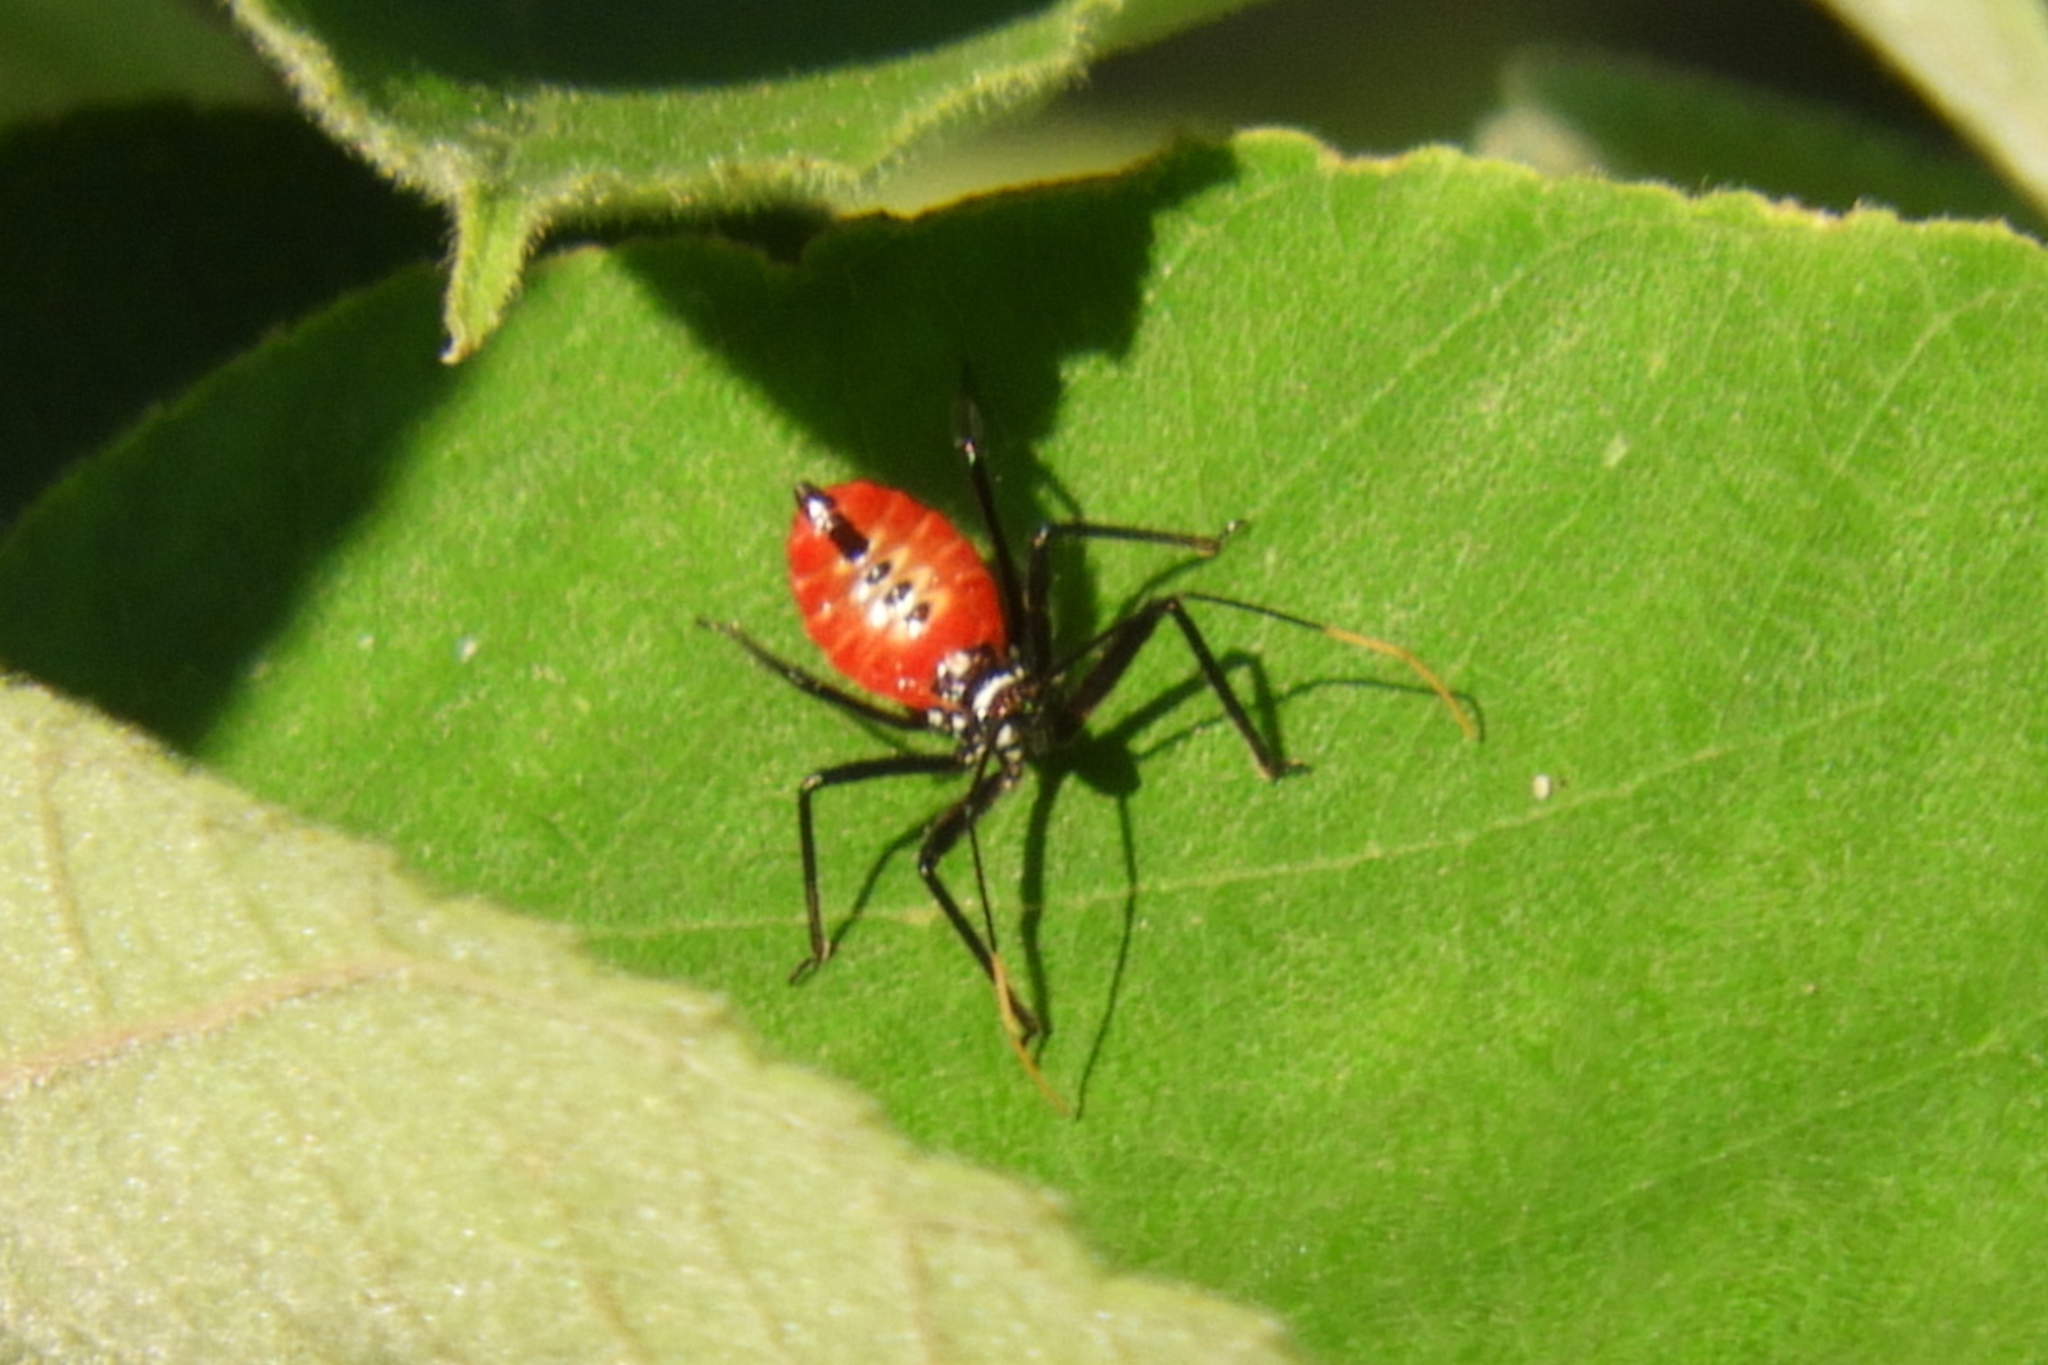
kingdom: Animalia
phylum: Arthropoda
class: Insecta
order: Hemiptera
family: Reduviidae
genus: Arilus
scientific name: Arilus cristatus
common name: North american wheel bug
